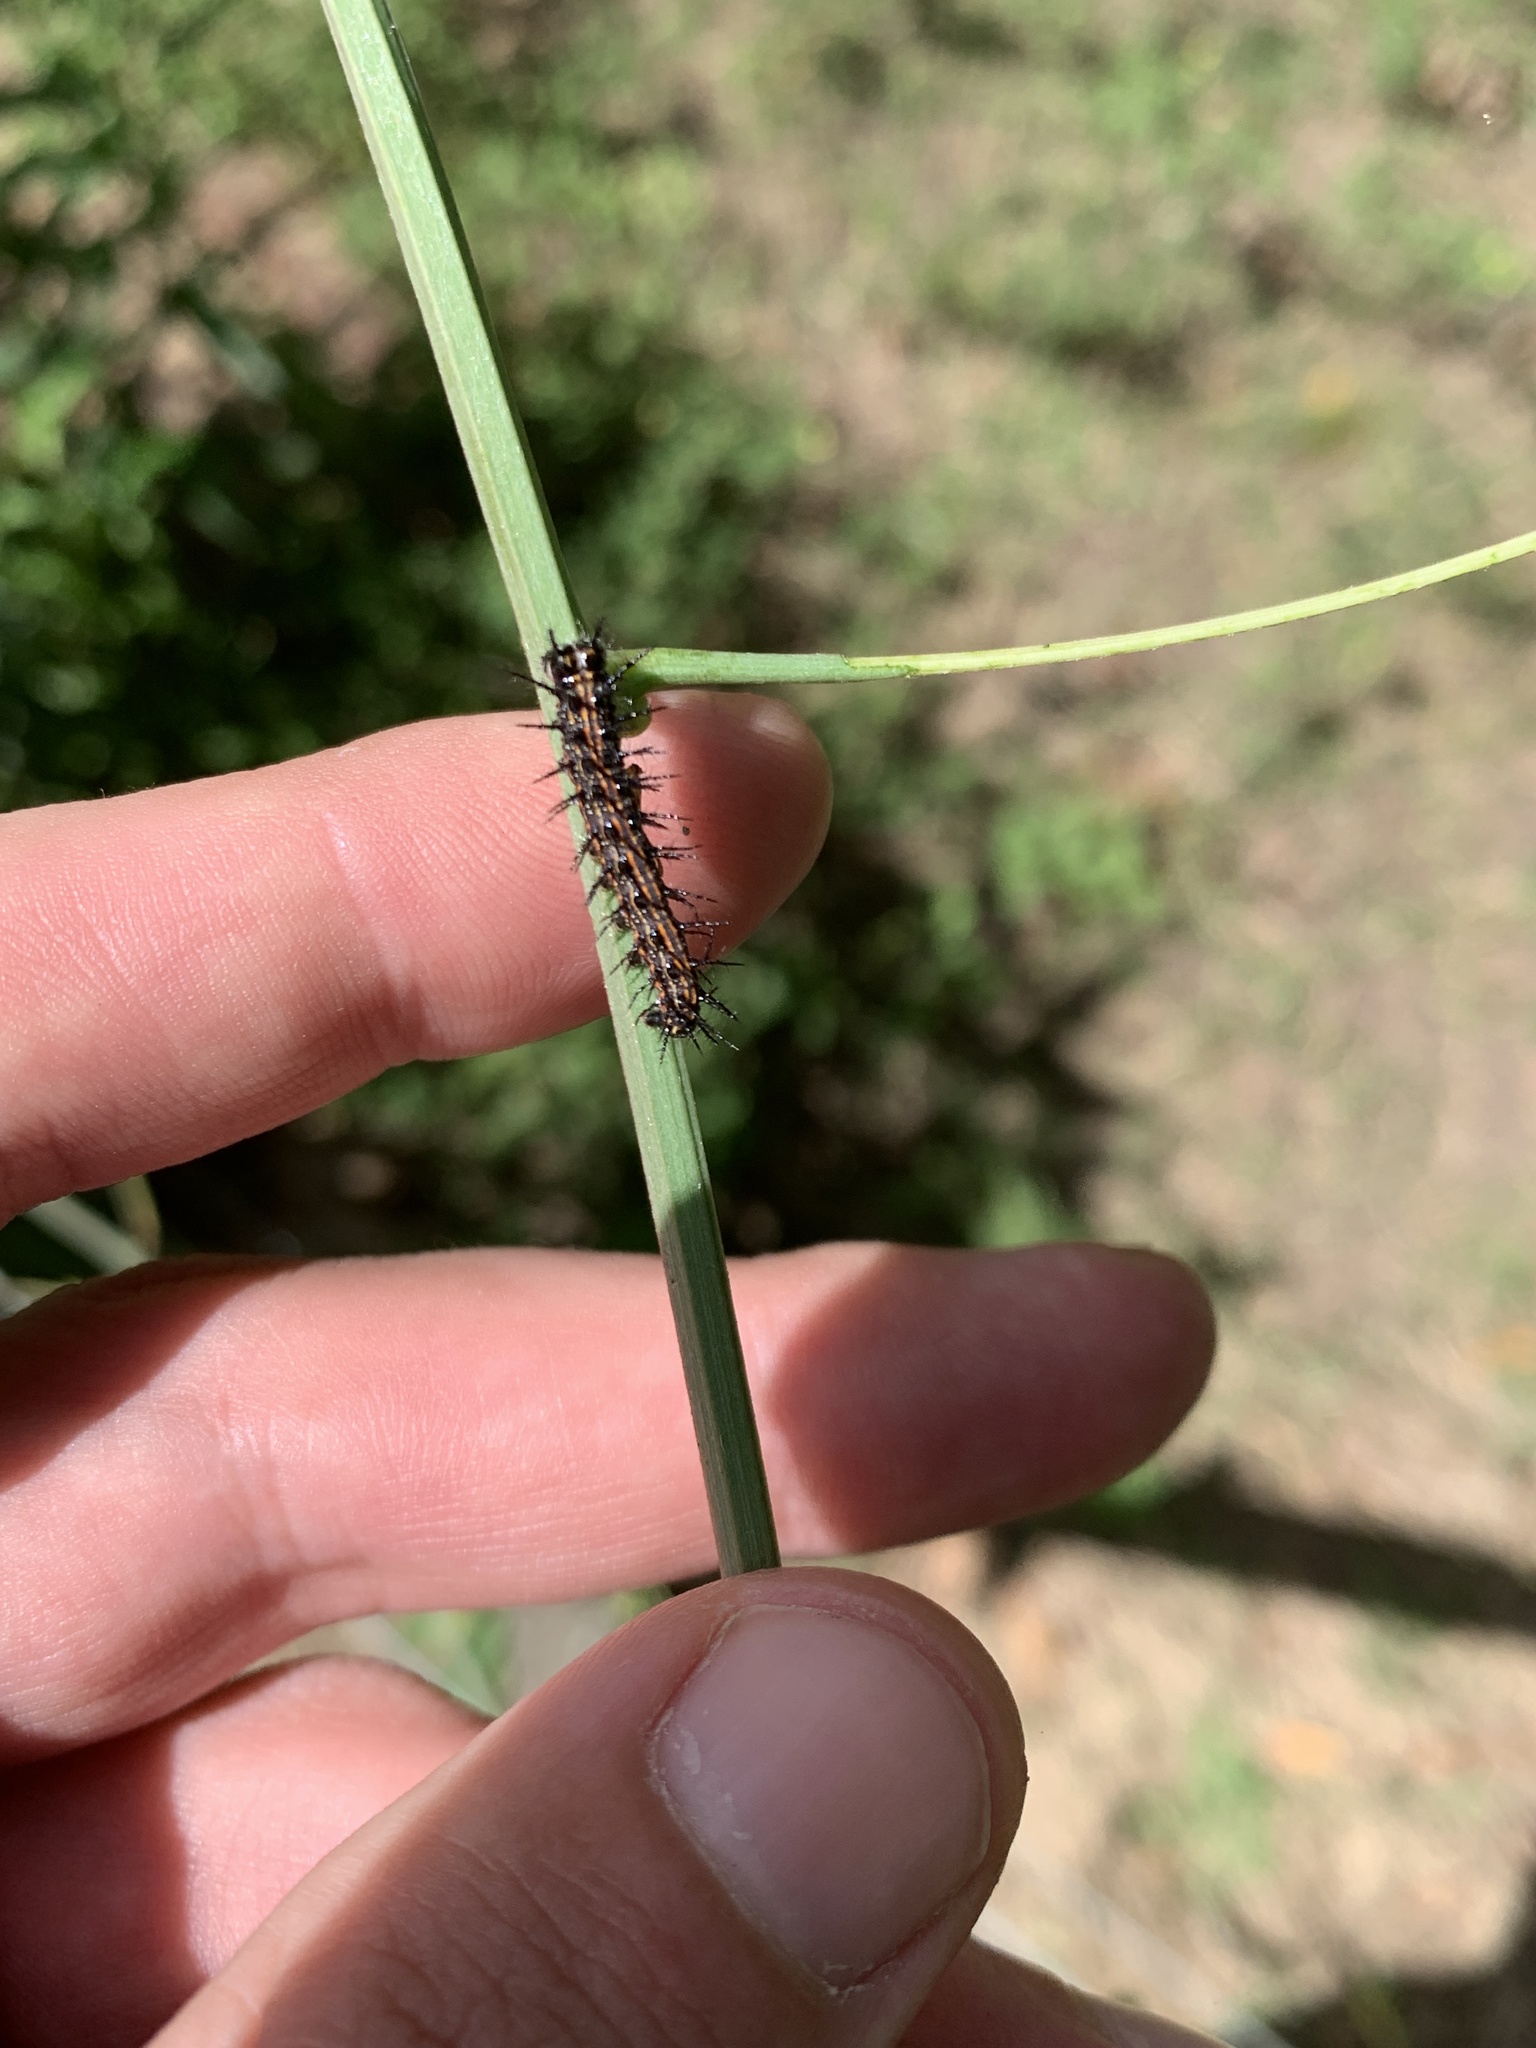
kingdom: Animalia
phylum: Arthropoda
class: Insecta
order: Lepidoptera
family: Nymphalidae
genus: Dione
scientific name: Dione vanillae
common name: Gulf fritillary
